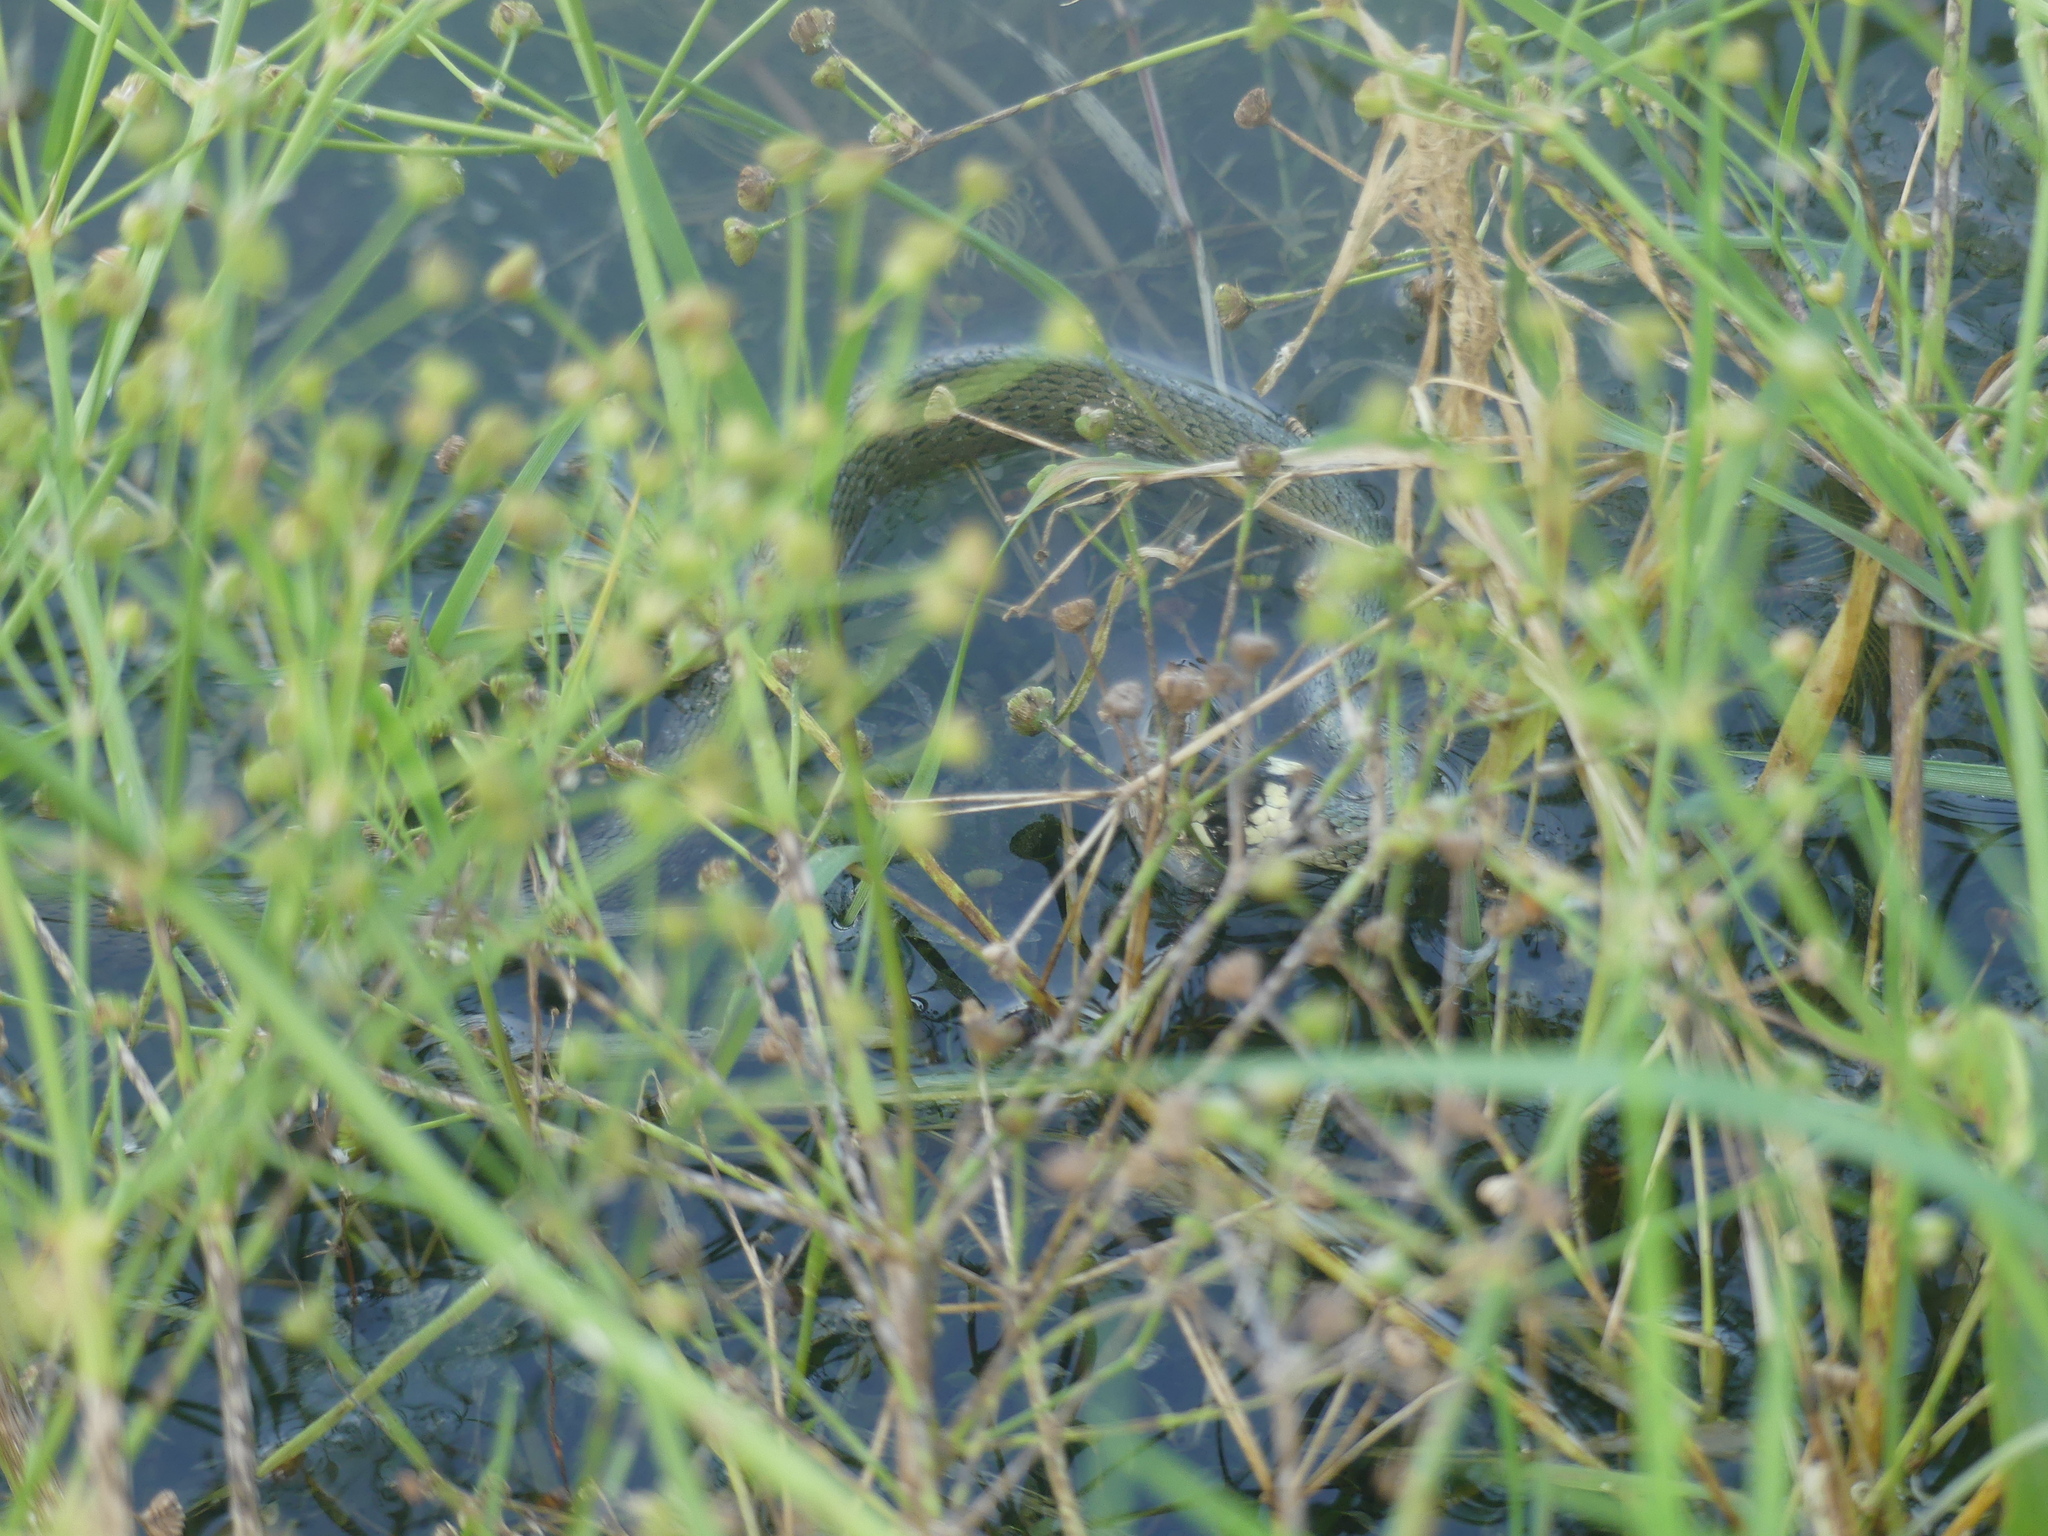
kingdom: Animalia
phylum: Chordata
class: Squamata
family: Colubridae
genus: Natrix
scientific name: Natrix natrix
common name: Grass snake
